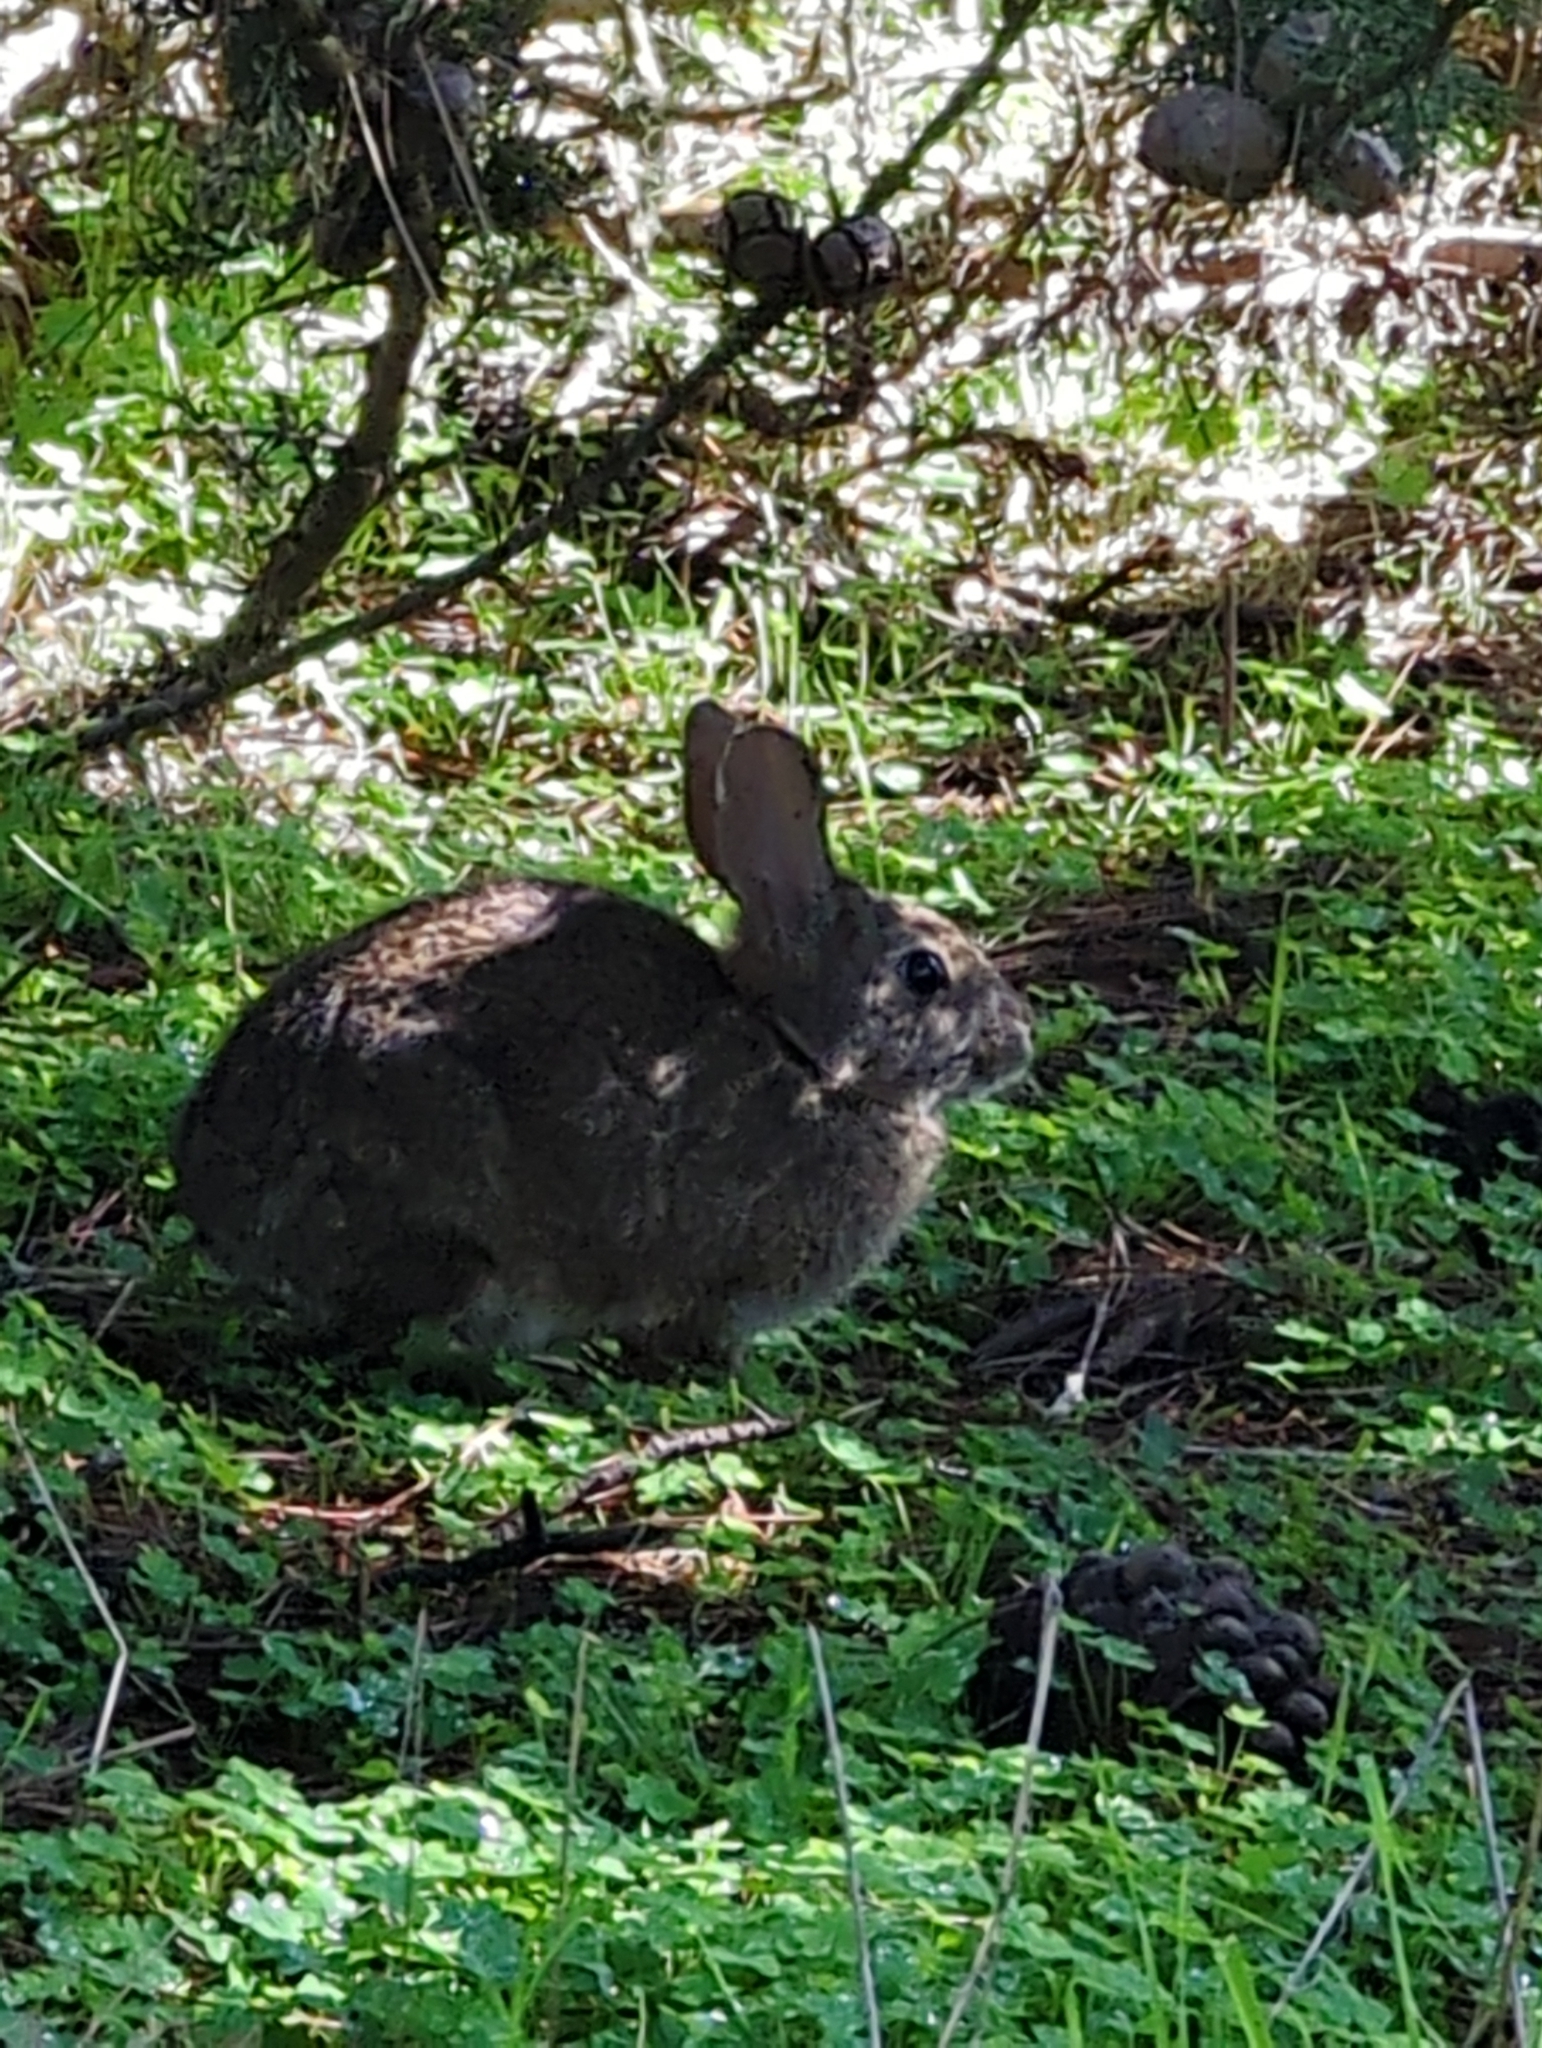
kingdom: Animalia
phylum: Chordata
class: Mammalia
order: Lagomorpha
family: Leporidae
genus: Sylvilagus
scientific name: Sylvilagus bachmani
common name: Brush rabbit
